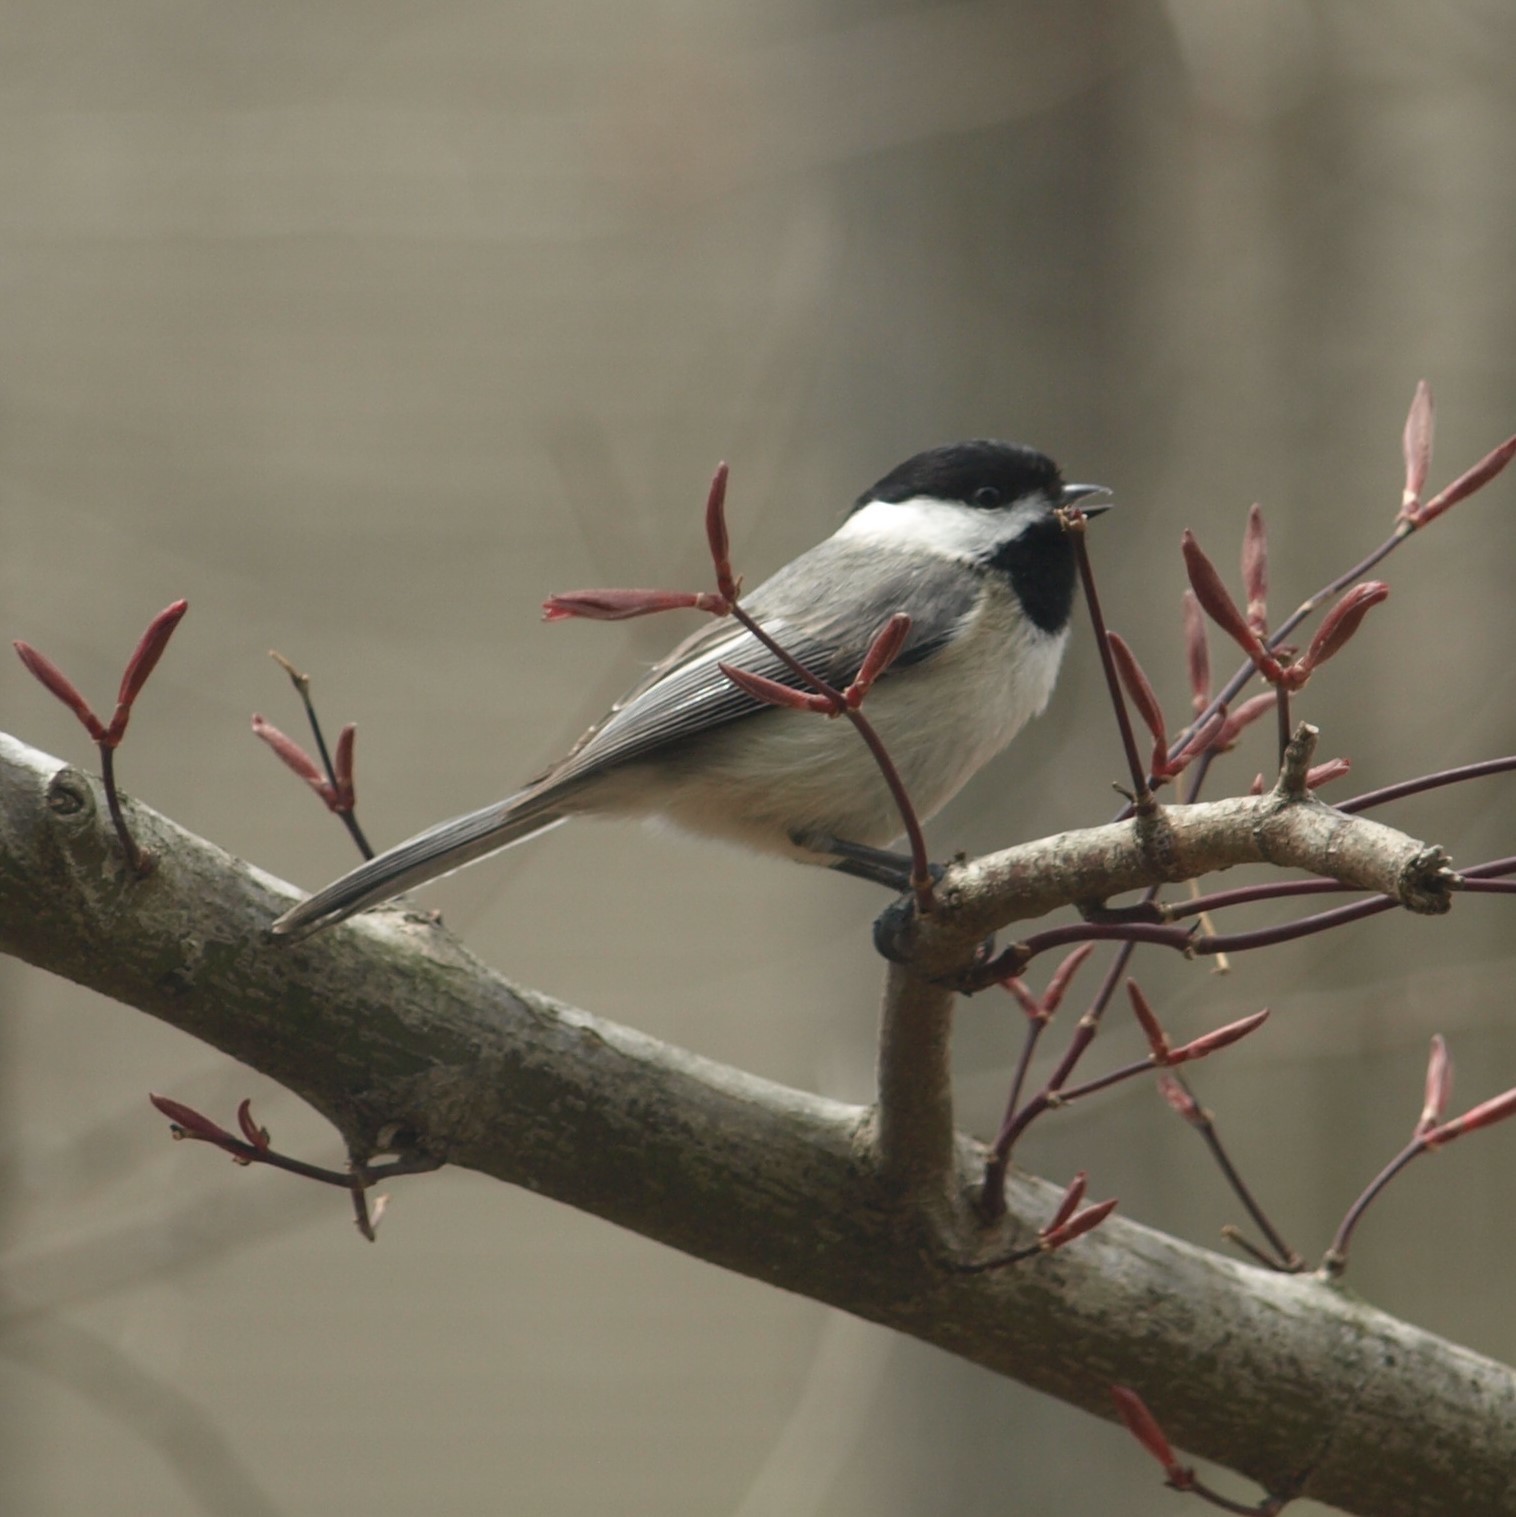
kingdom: Animalia
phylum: Chordata
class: Aves
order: Passeriformes
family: Paridae
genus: Poecile
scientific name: Poecile atricapillus
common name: Black-capped chickadee
